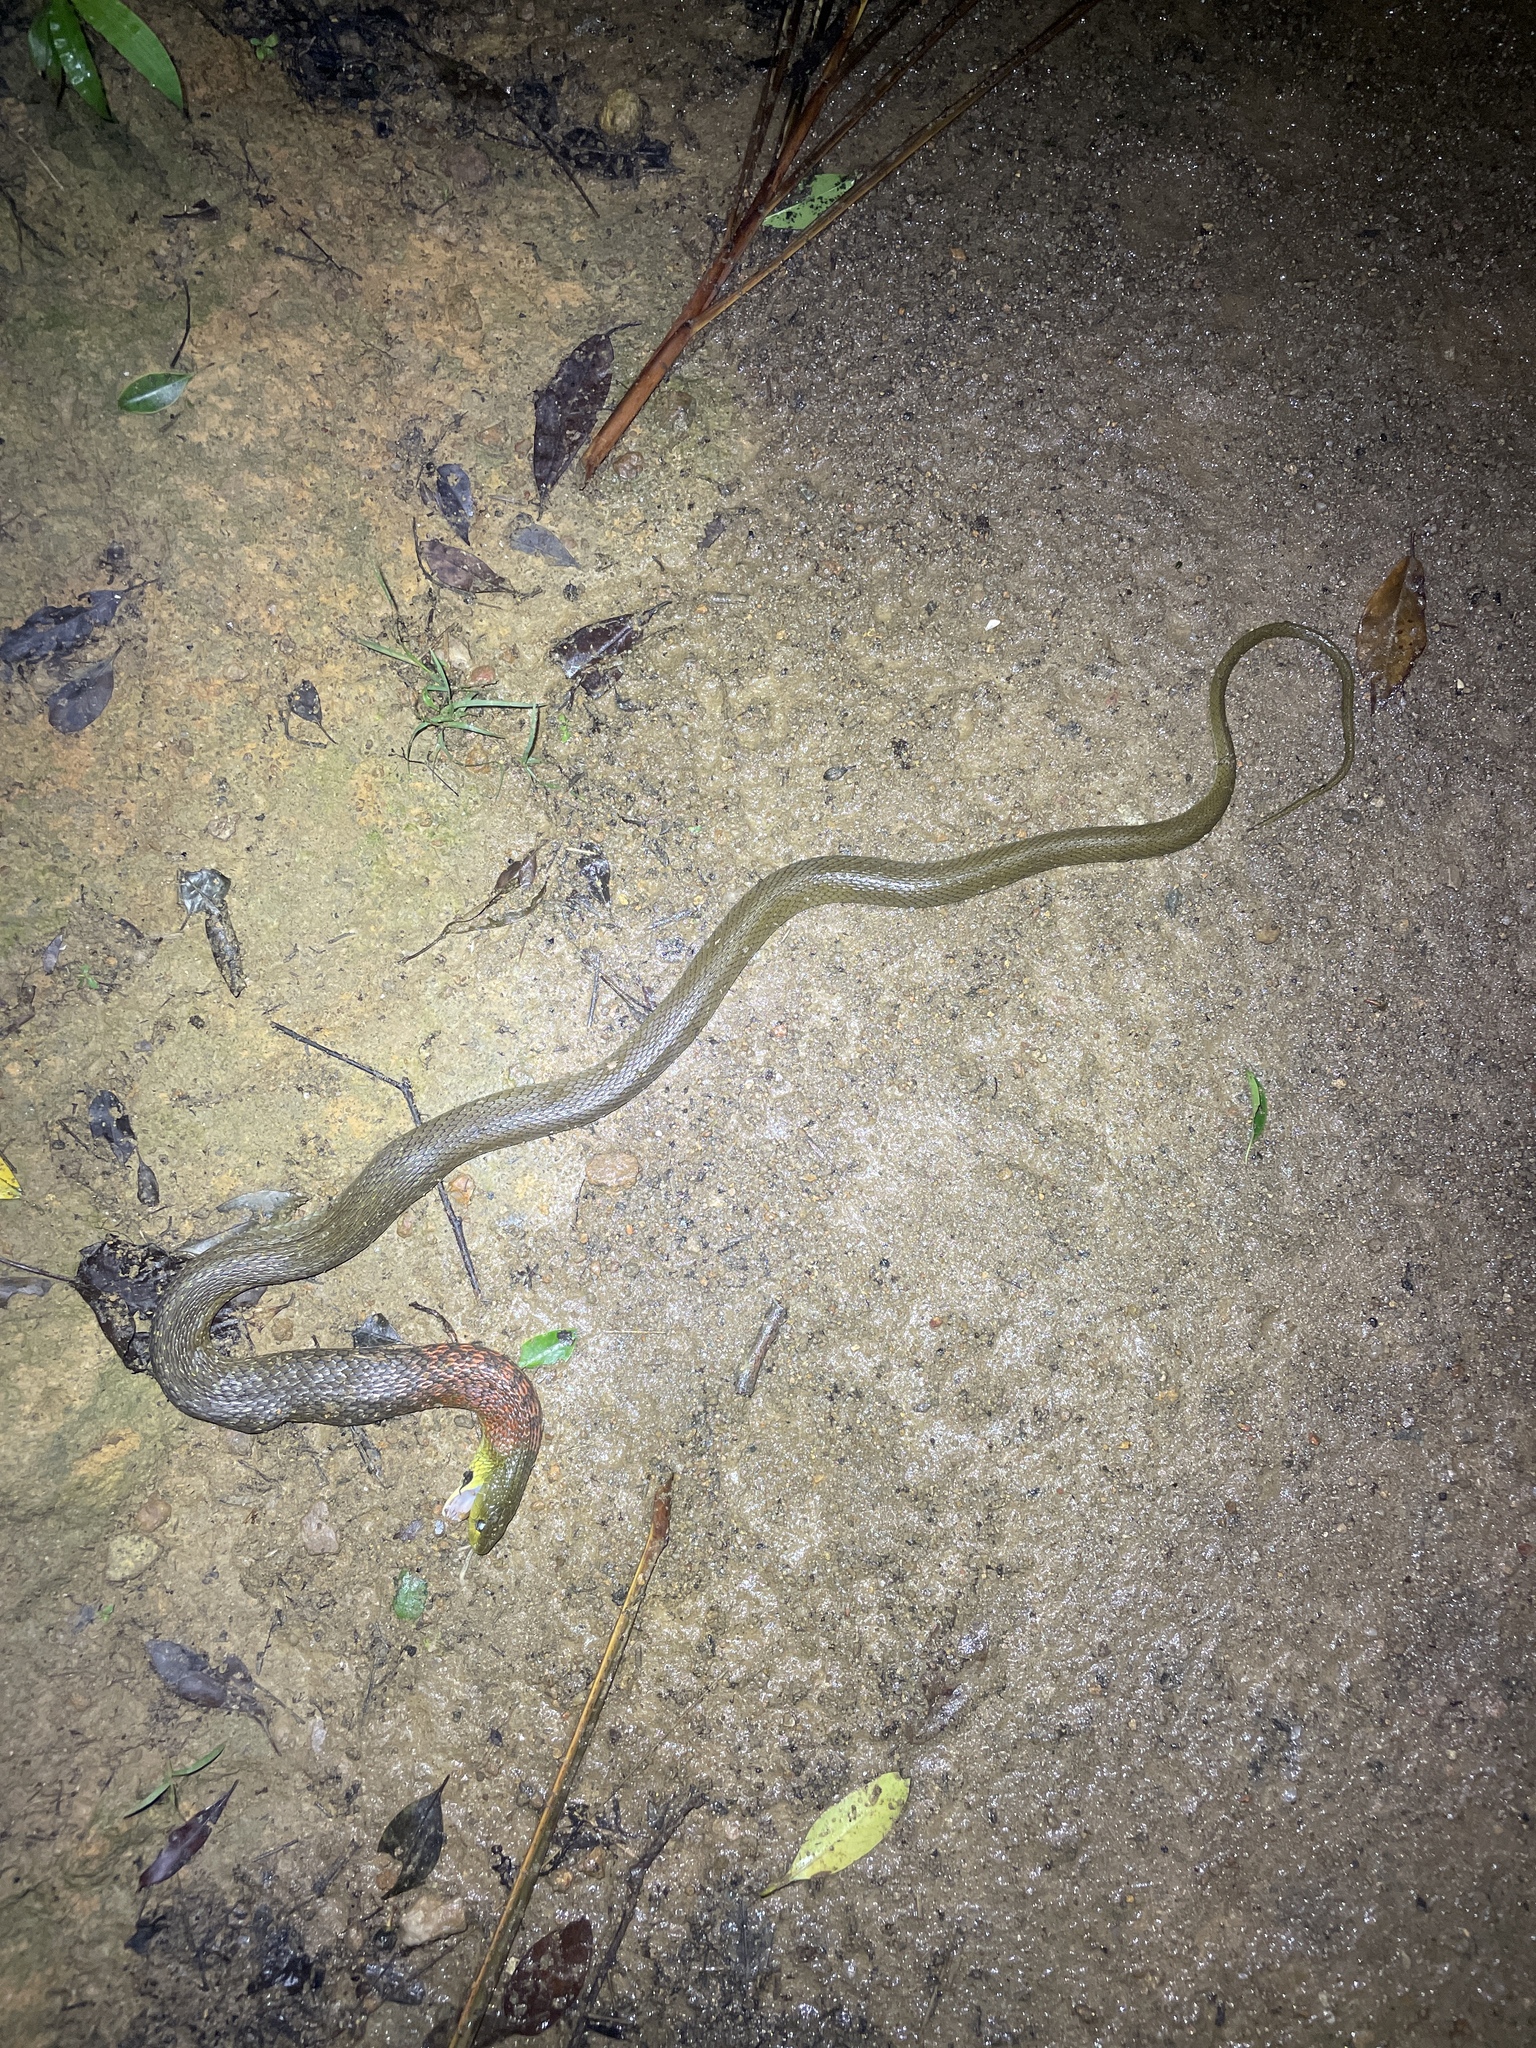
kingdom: Animalia
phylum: Chordata
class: Squamata
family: Colubridae
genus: Rhabdophis
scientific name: Rhabdophis helleri
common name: Heller’s red-necked keelback
